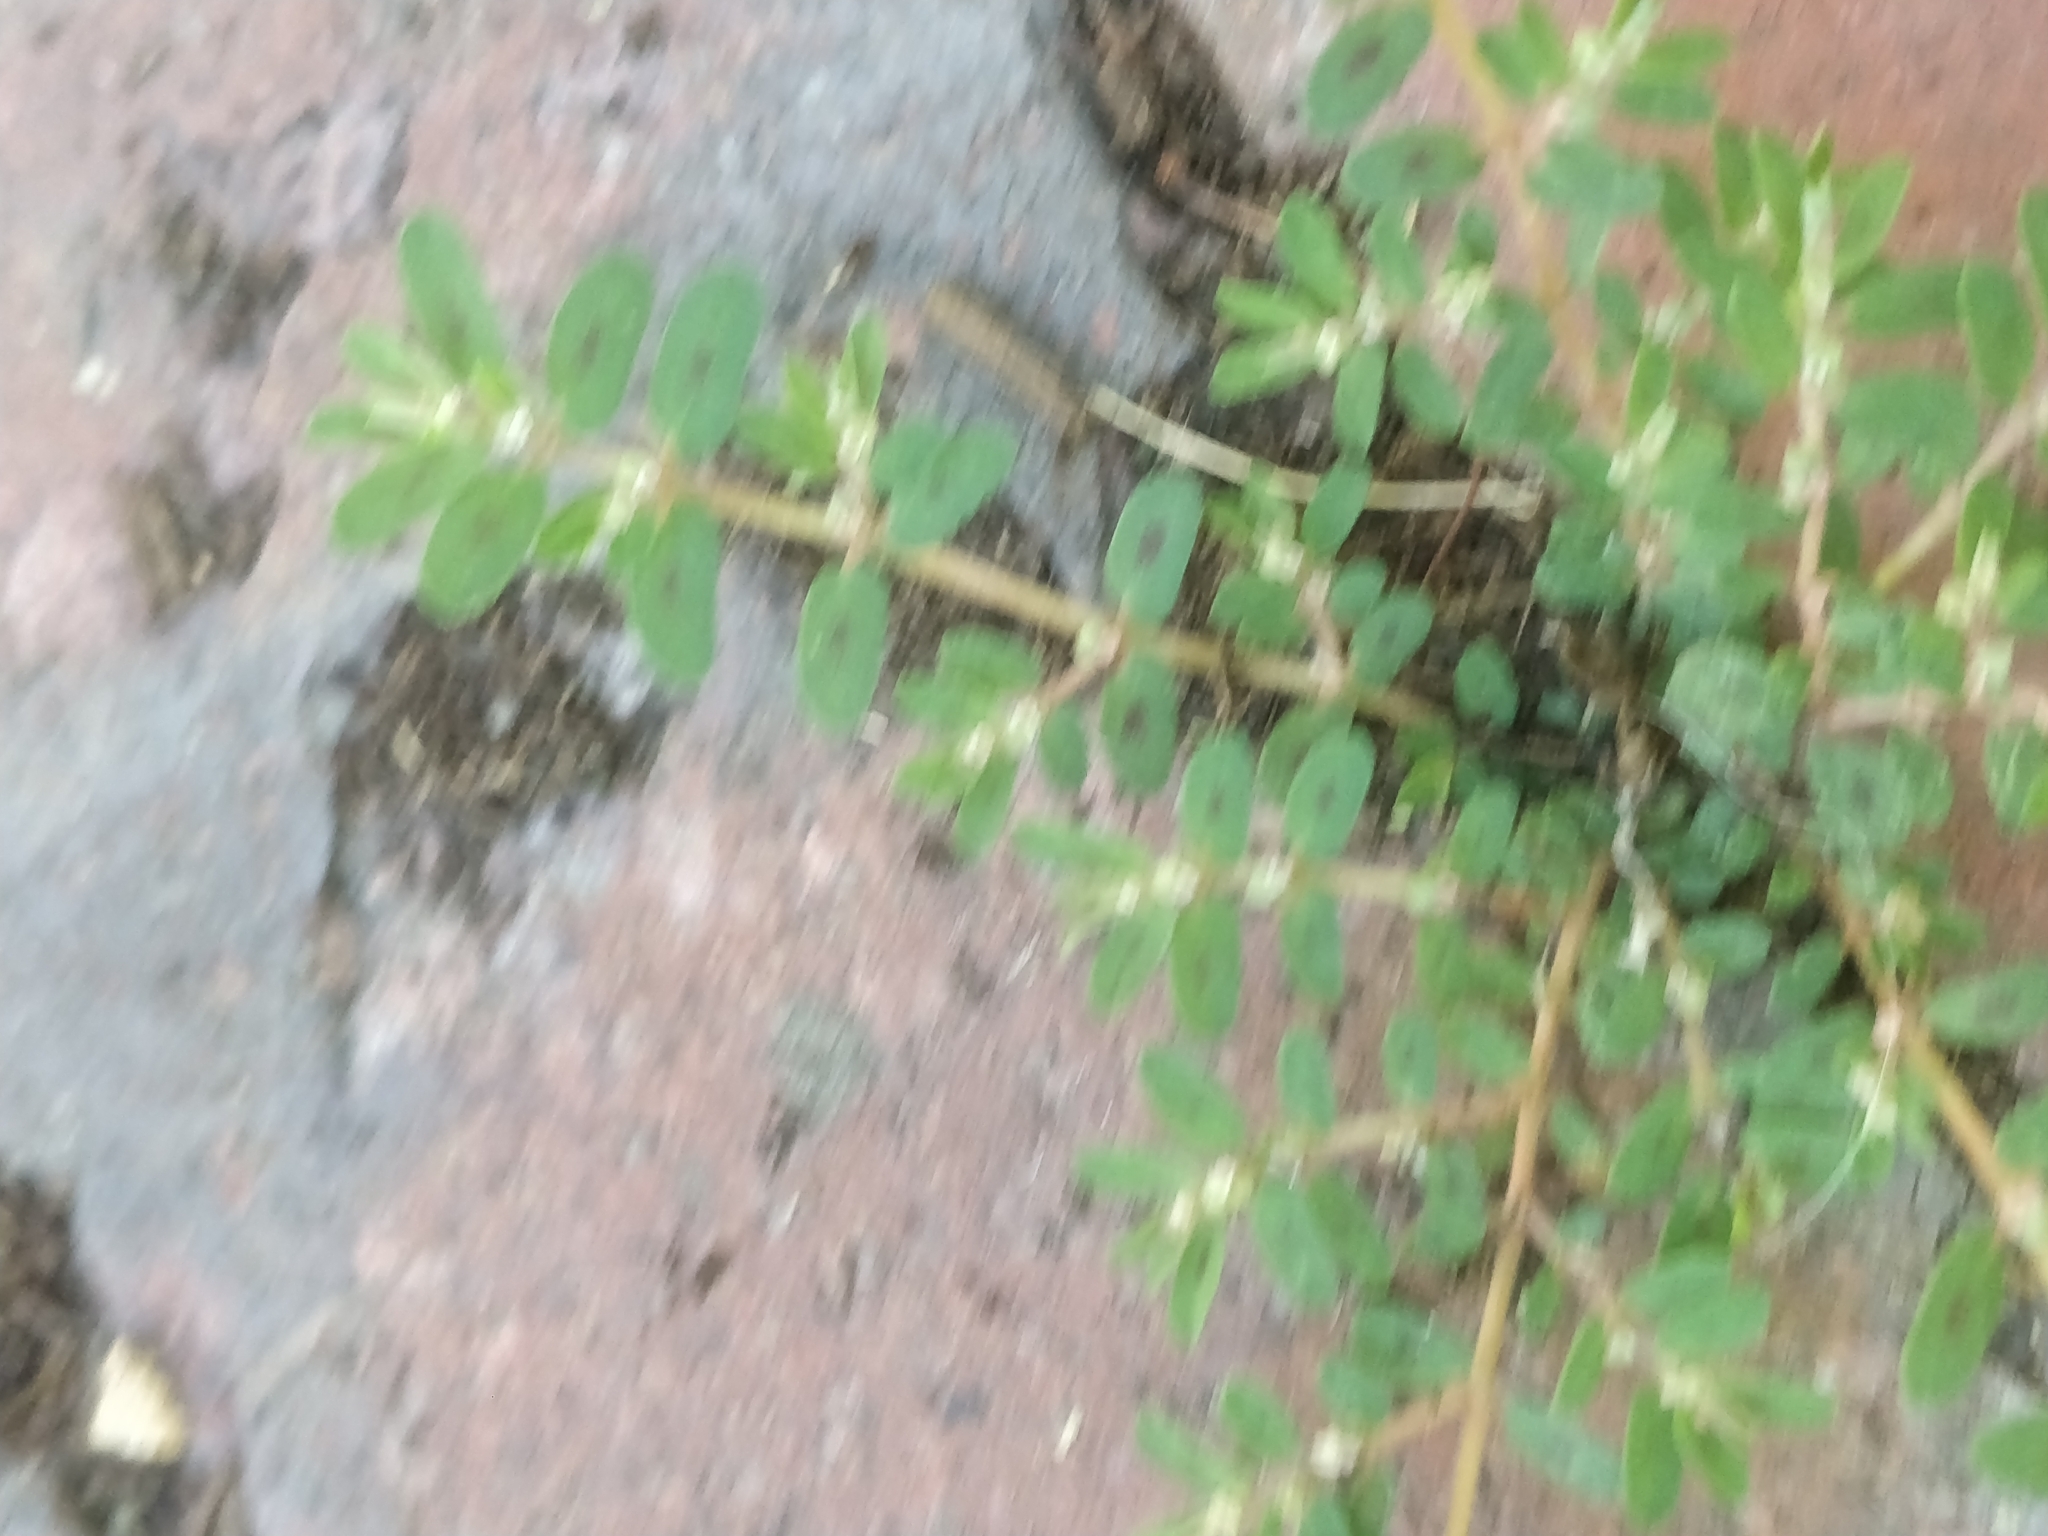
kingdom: Plantae
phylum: Tracheophyta
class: Magnoliopsida
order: Malpighiales
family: Euphorbiaceae
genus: Euphorbia
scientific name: Euphorbia maculata
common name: Spotted spurge
